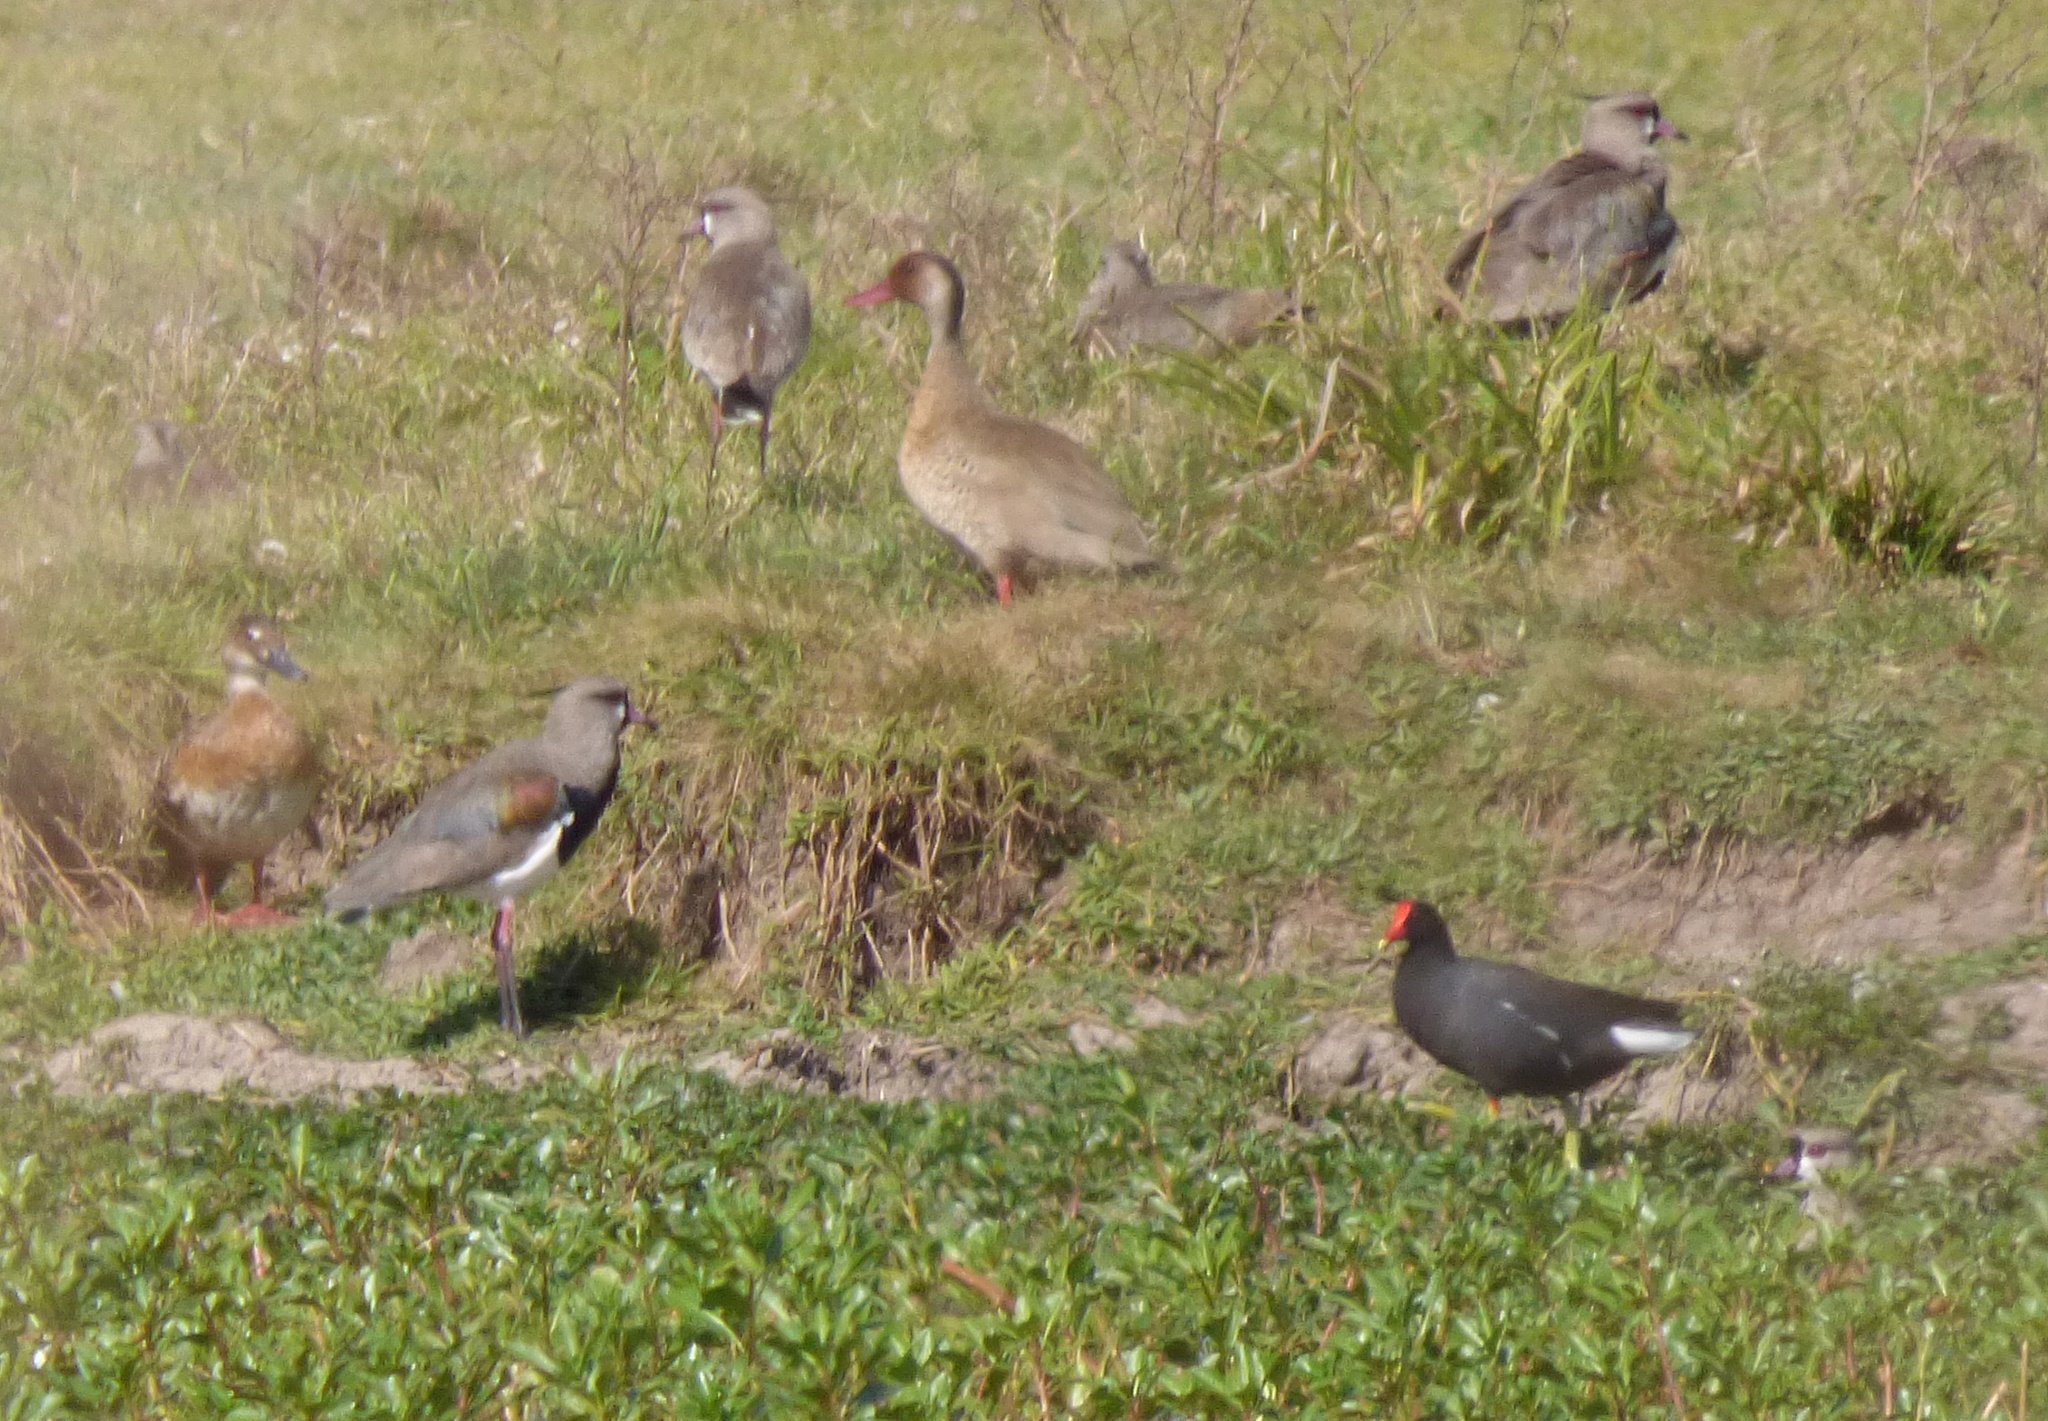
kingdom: Animalia
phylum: Chordata
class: Aves
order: Gruiformes
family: Rallidae
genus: Gallinula
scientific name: Gallinula chloropus
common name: Common moorhen
